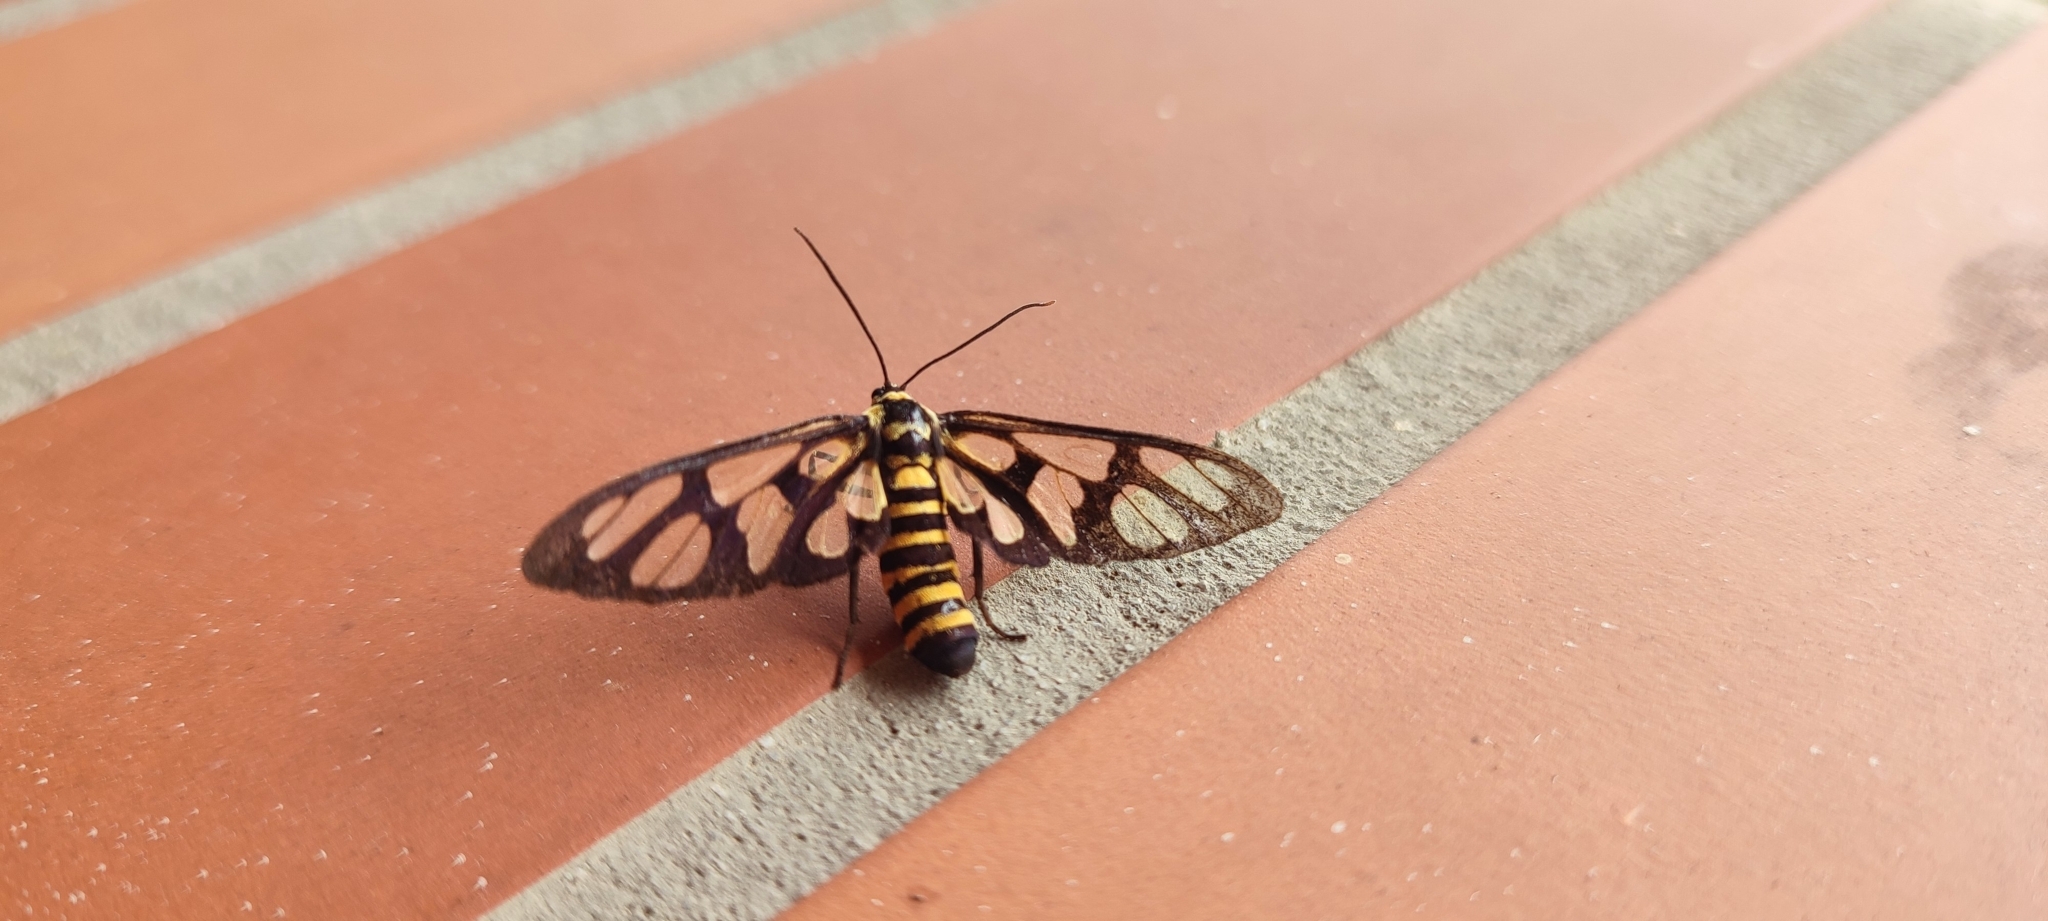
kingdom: Animalia
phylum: Arthropoda
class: Insecta
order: Lepidoptera
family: Erebidae
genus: Amata
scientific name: Amata persimilis
